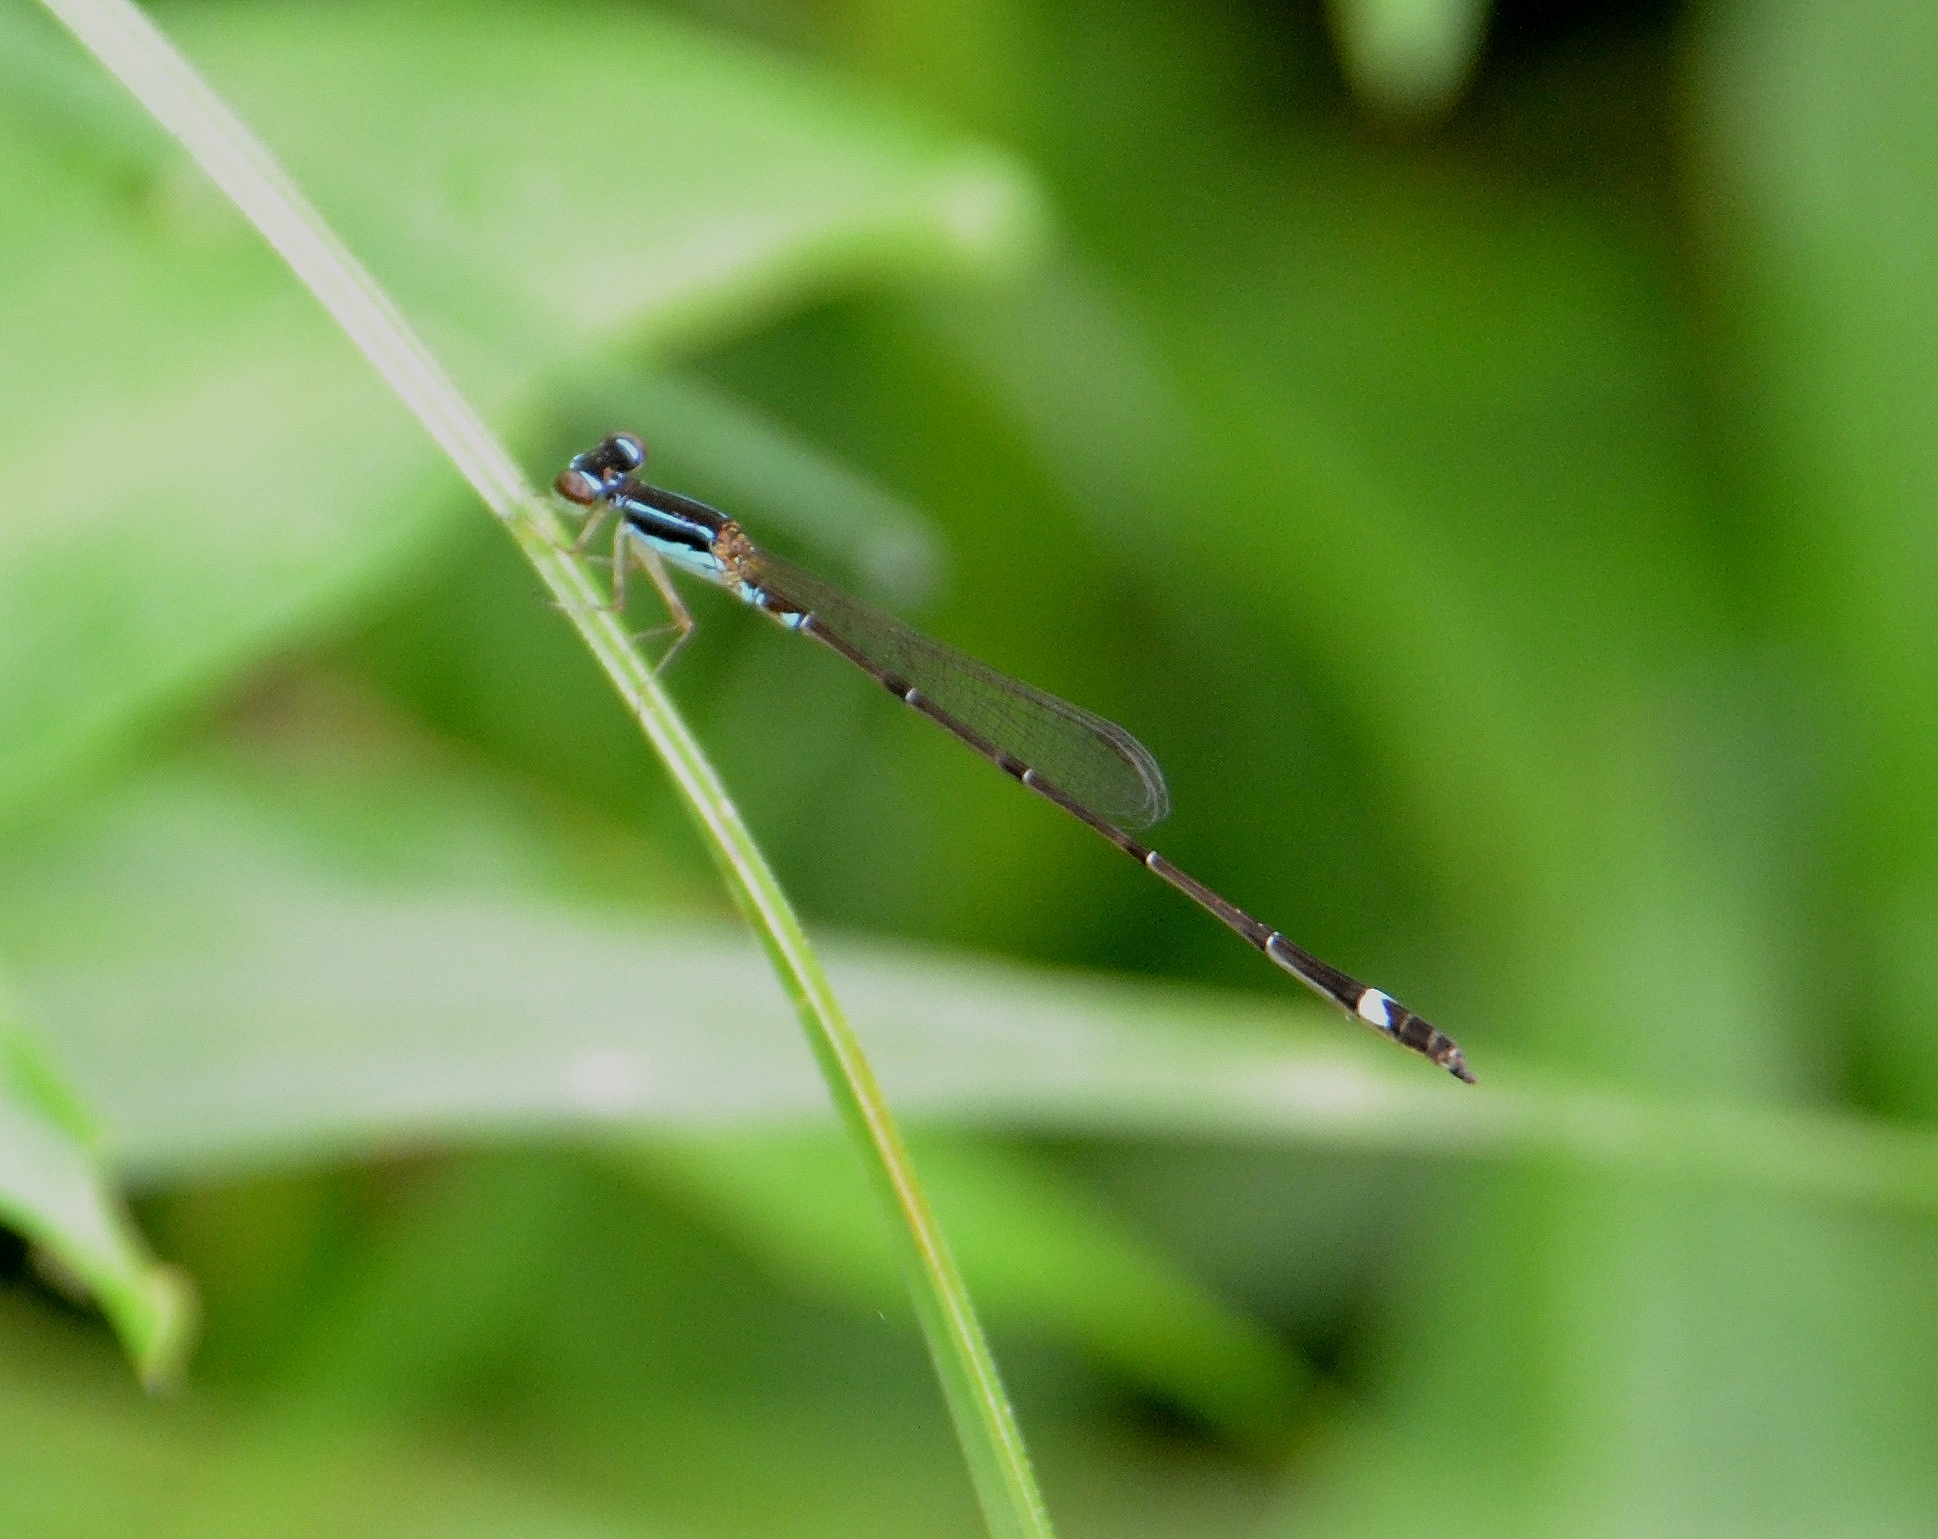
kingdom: Animalia
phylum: Arthropoda
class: Insecta
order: Odonata
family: Coenagrionidae
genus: Mortonagrion
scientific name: Mortonagrion varralli
